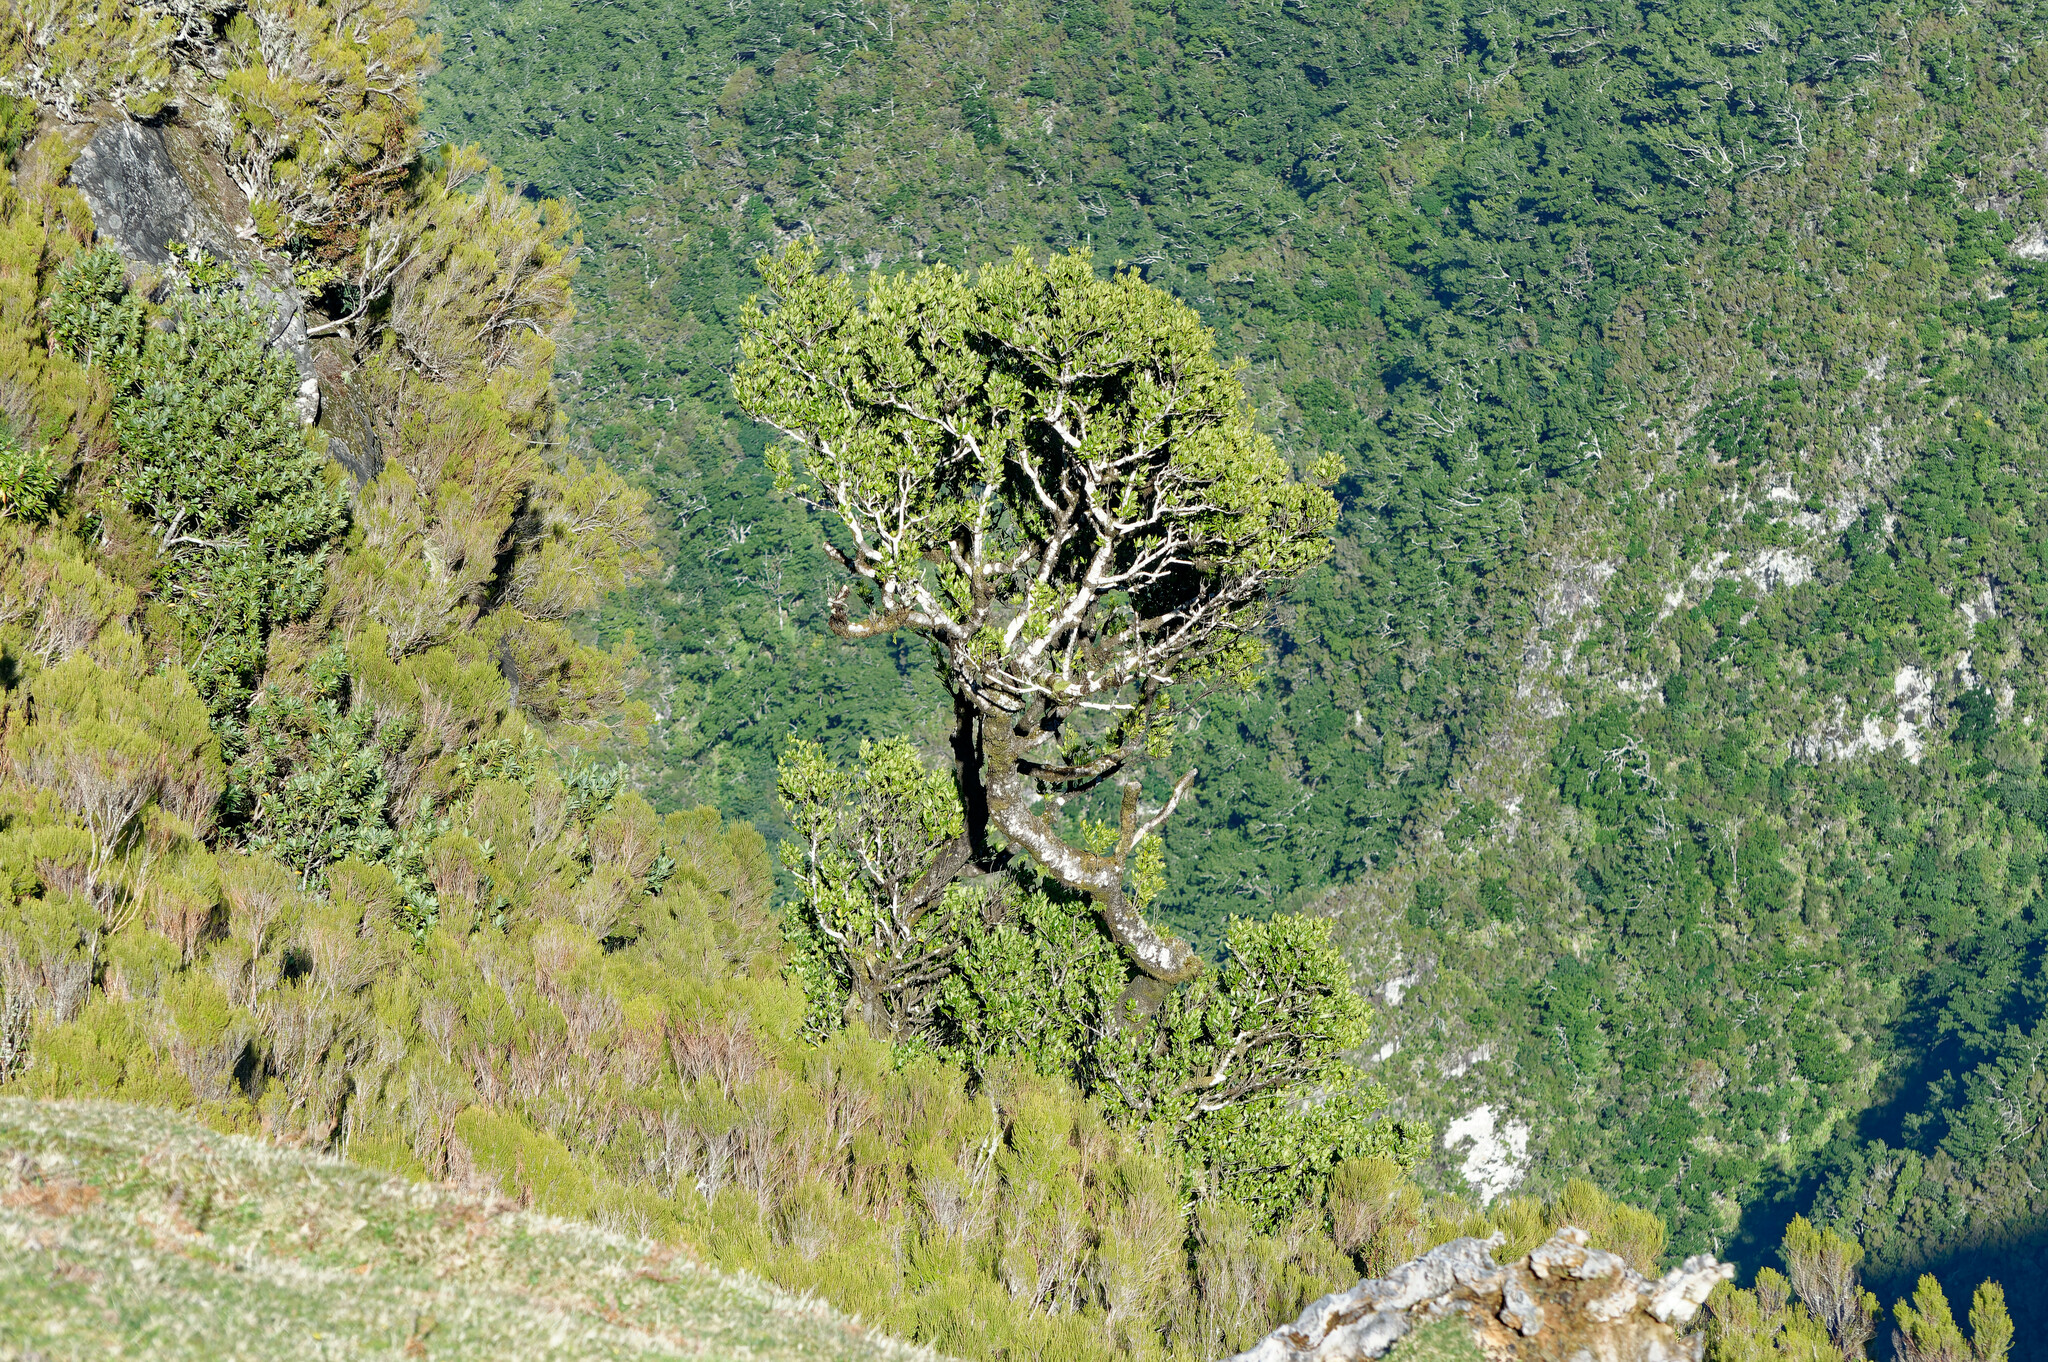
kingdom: Plantae
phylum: Tracheophyta
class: Magnoliopsida
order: Laurales
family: Lauraceae
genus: Mespilodaphne
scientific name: Mespilodaphne foetens
